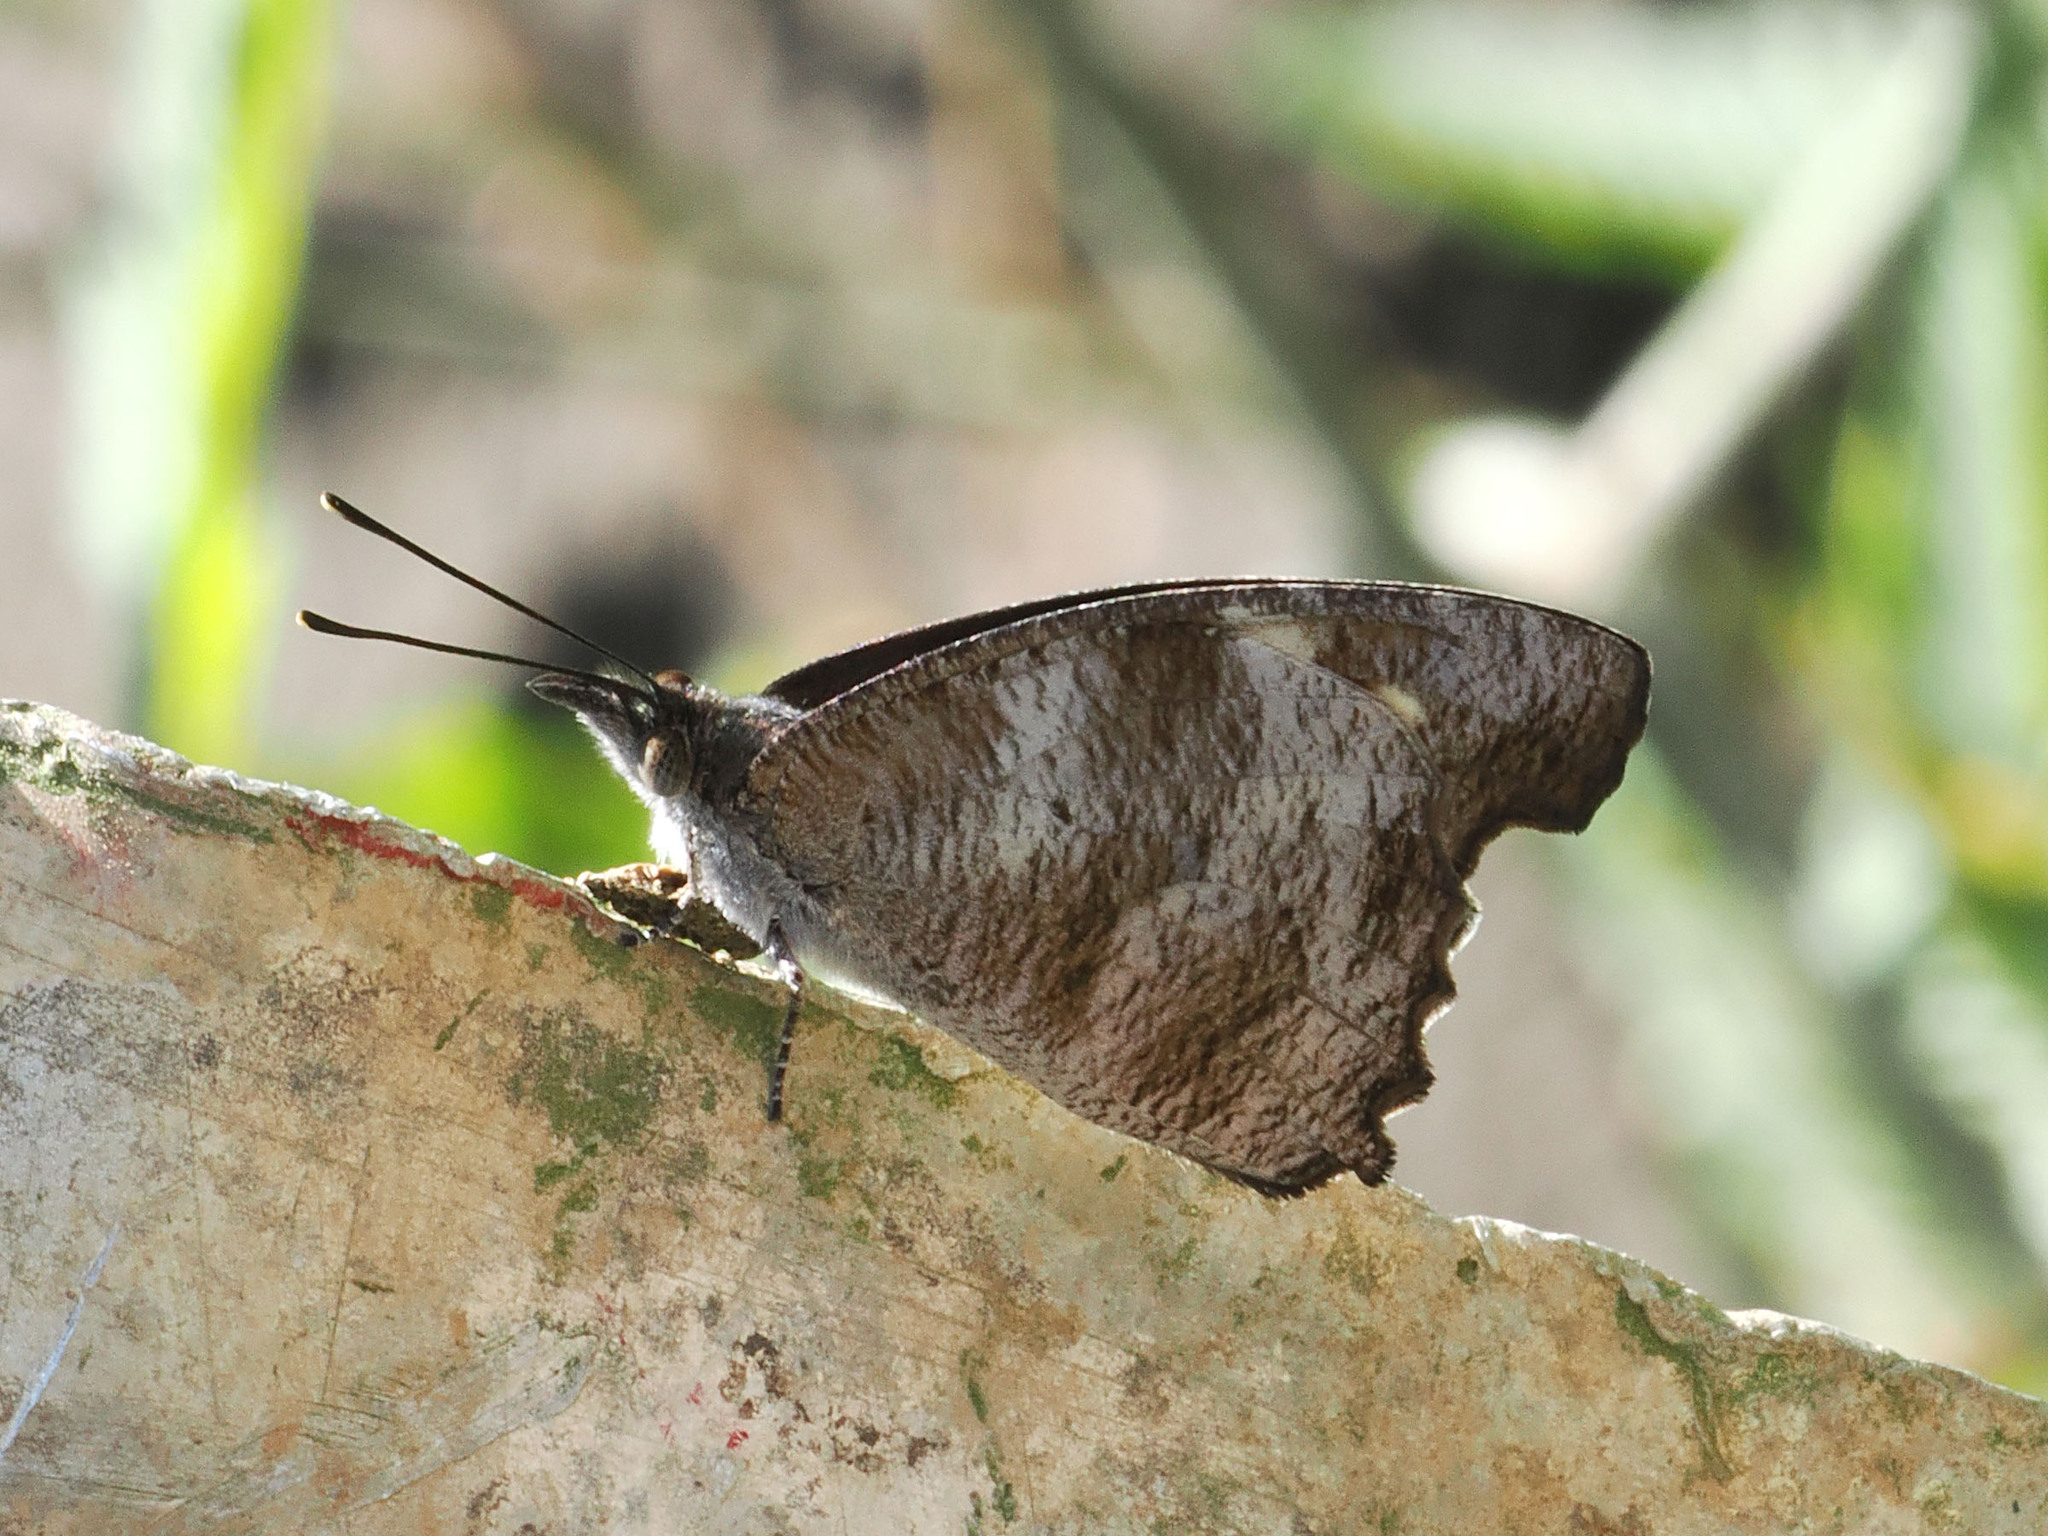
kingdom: Animalia
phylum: Arthropoda
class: Insecta
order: Lepidoptera
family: Nymphalidae
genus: Libythea
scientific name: Libythea geoffroy
